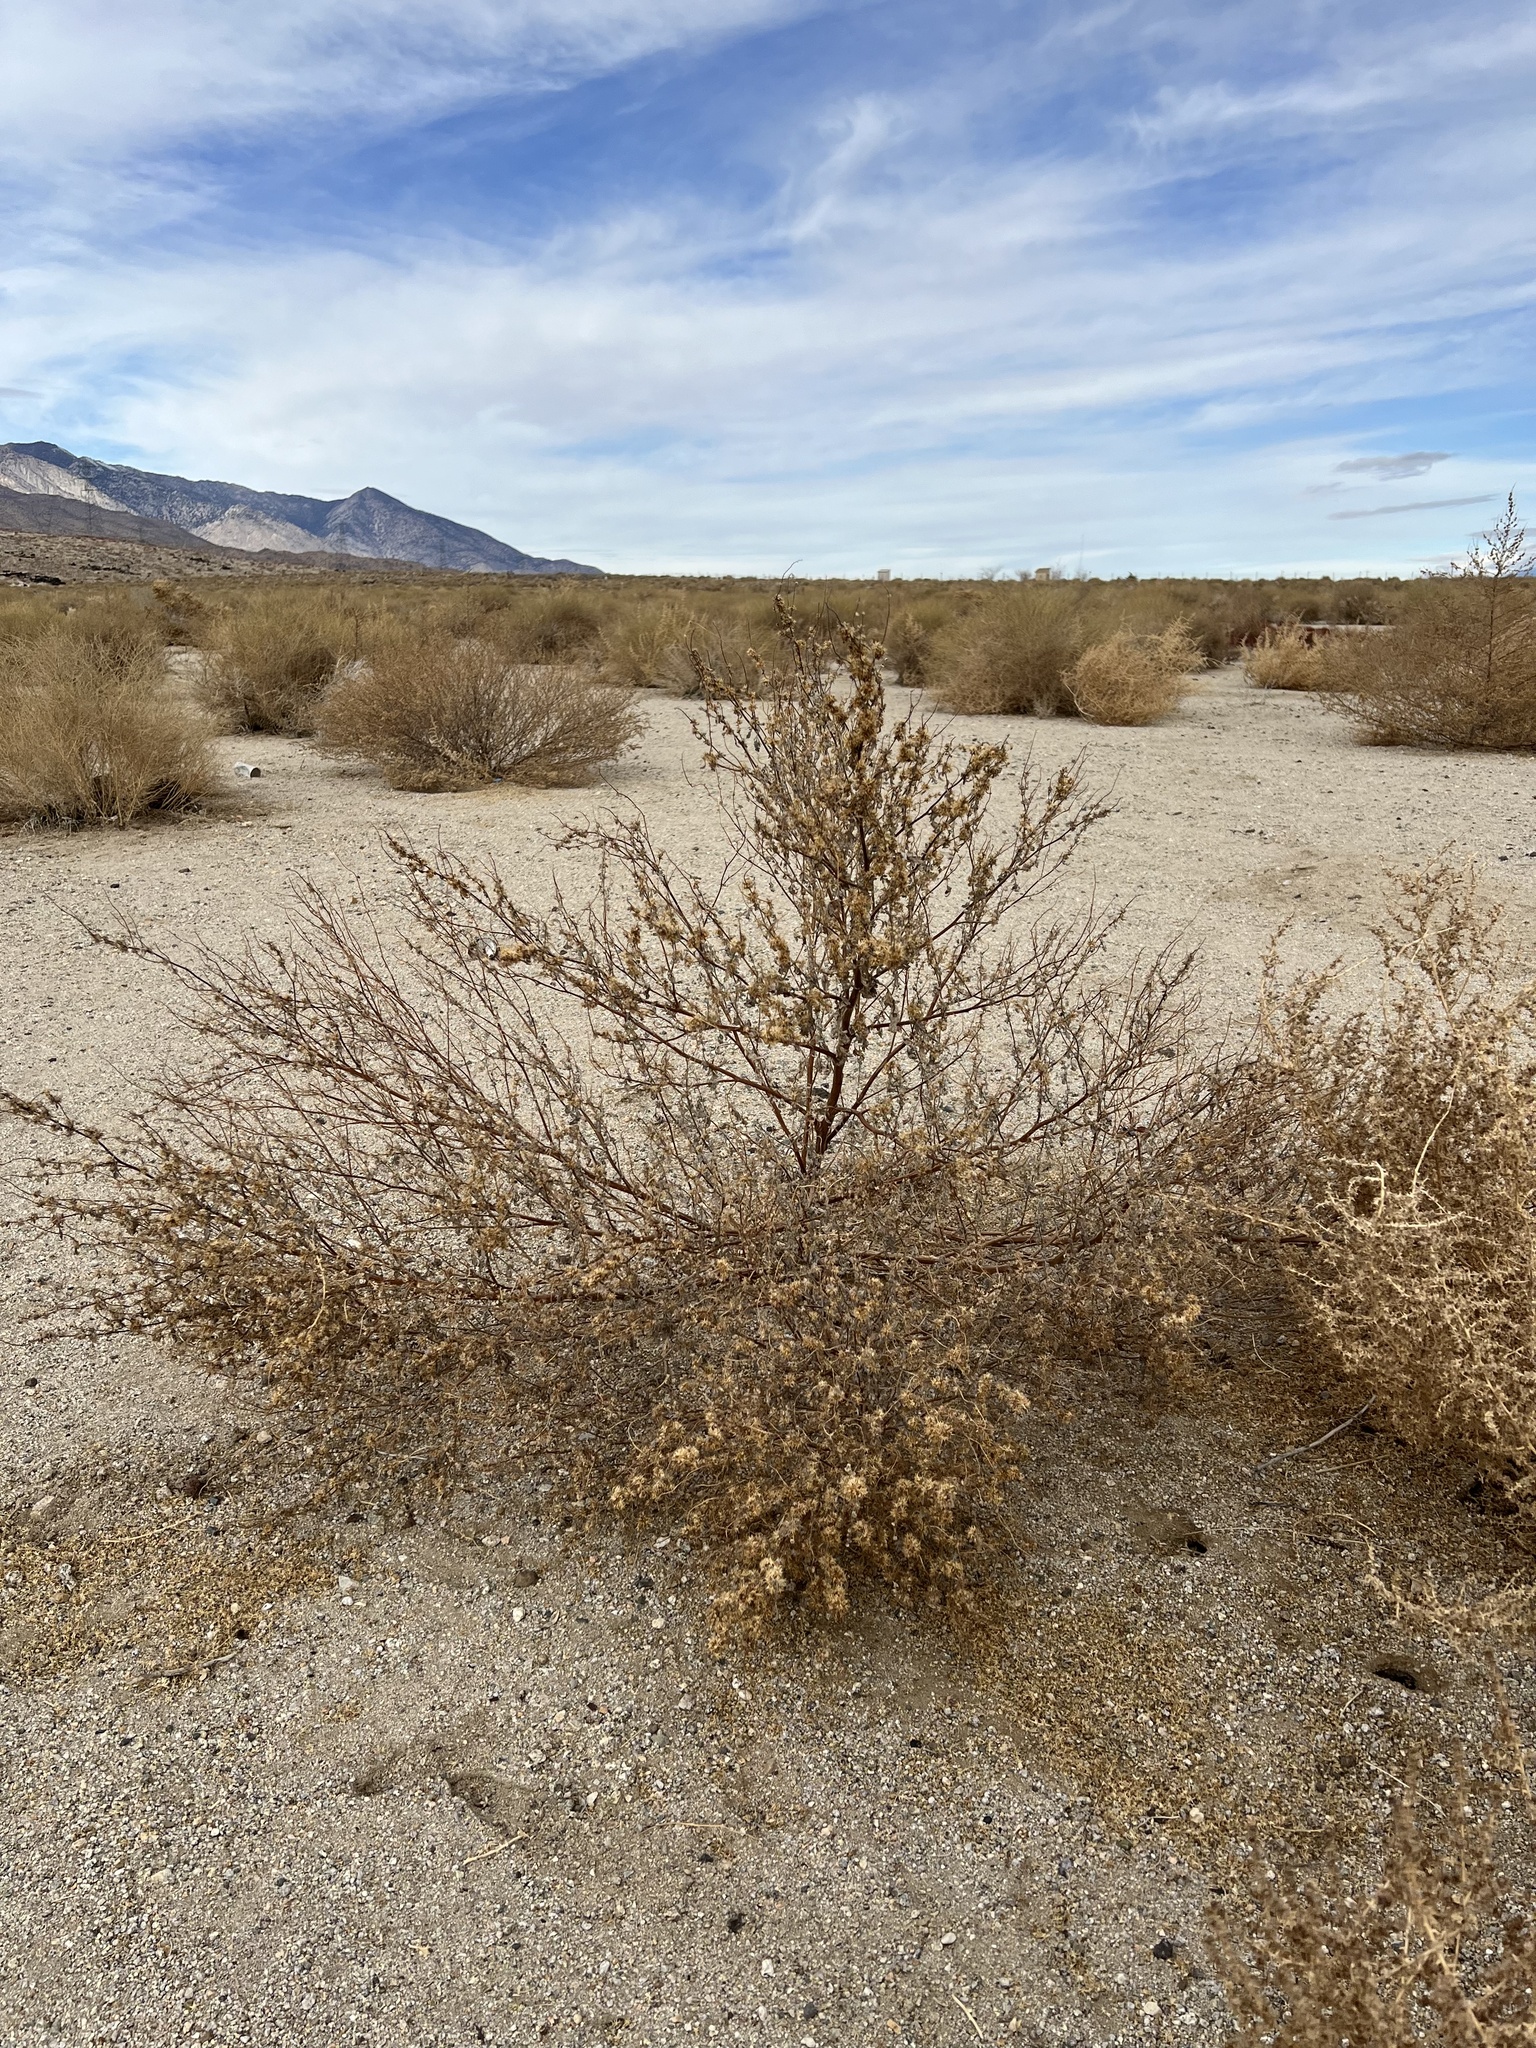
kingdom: Plantae
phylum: Tracheophyta
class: Magnoliopsida
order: Asterales
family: Asteraceae
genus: Ambrosia
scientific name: Ambrosia acanthicarpa
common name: Hooker's bur ragweed
